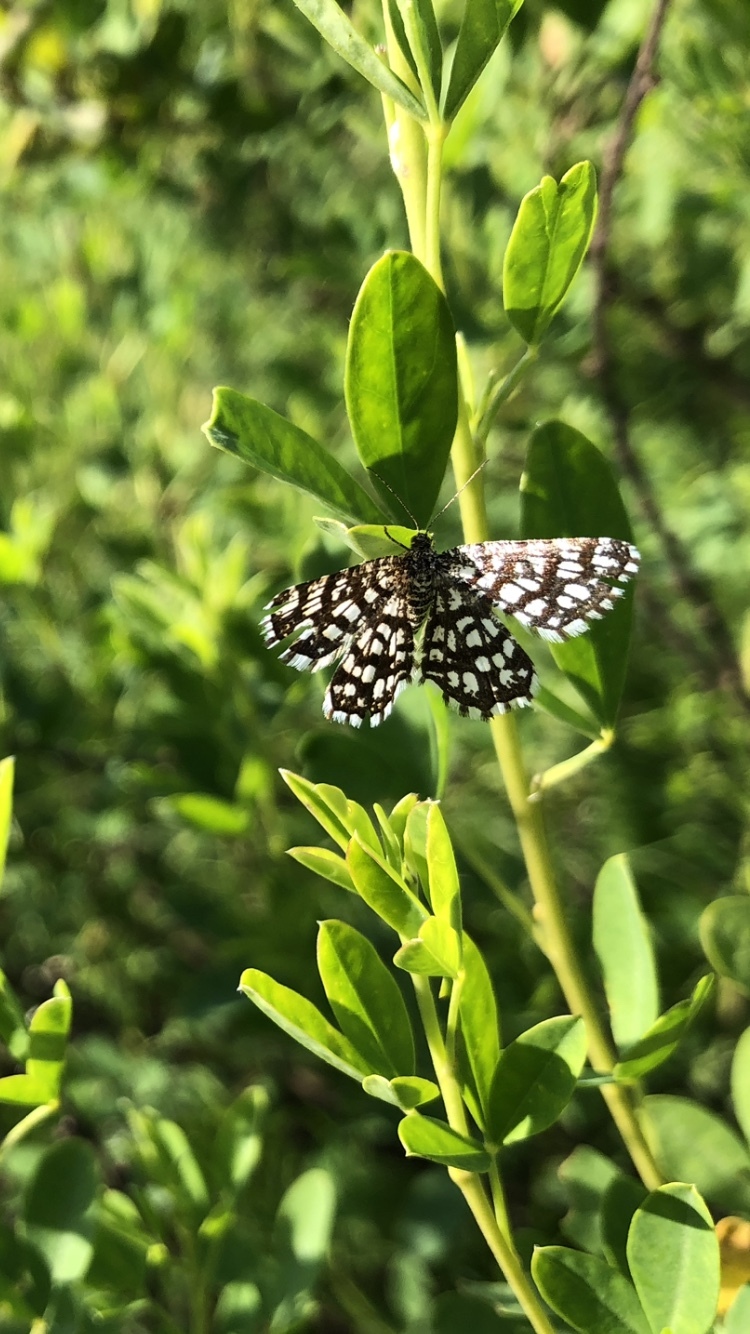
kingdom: Animalia
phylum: Arthropoda
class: Insecta
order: Lepidoptera
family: Geometridae
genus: Chiasmia
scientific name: Chiasmia clathrata
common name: Latticed heath
